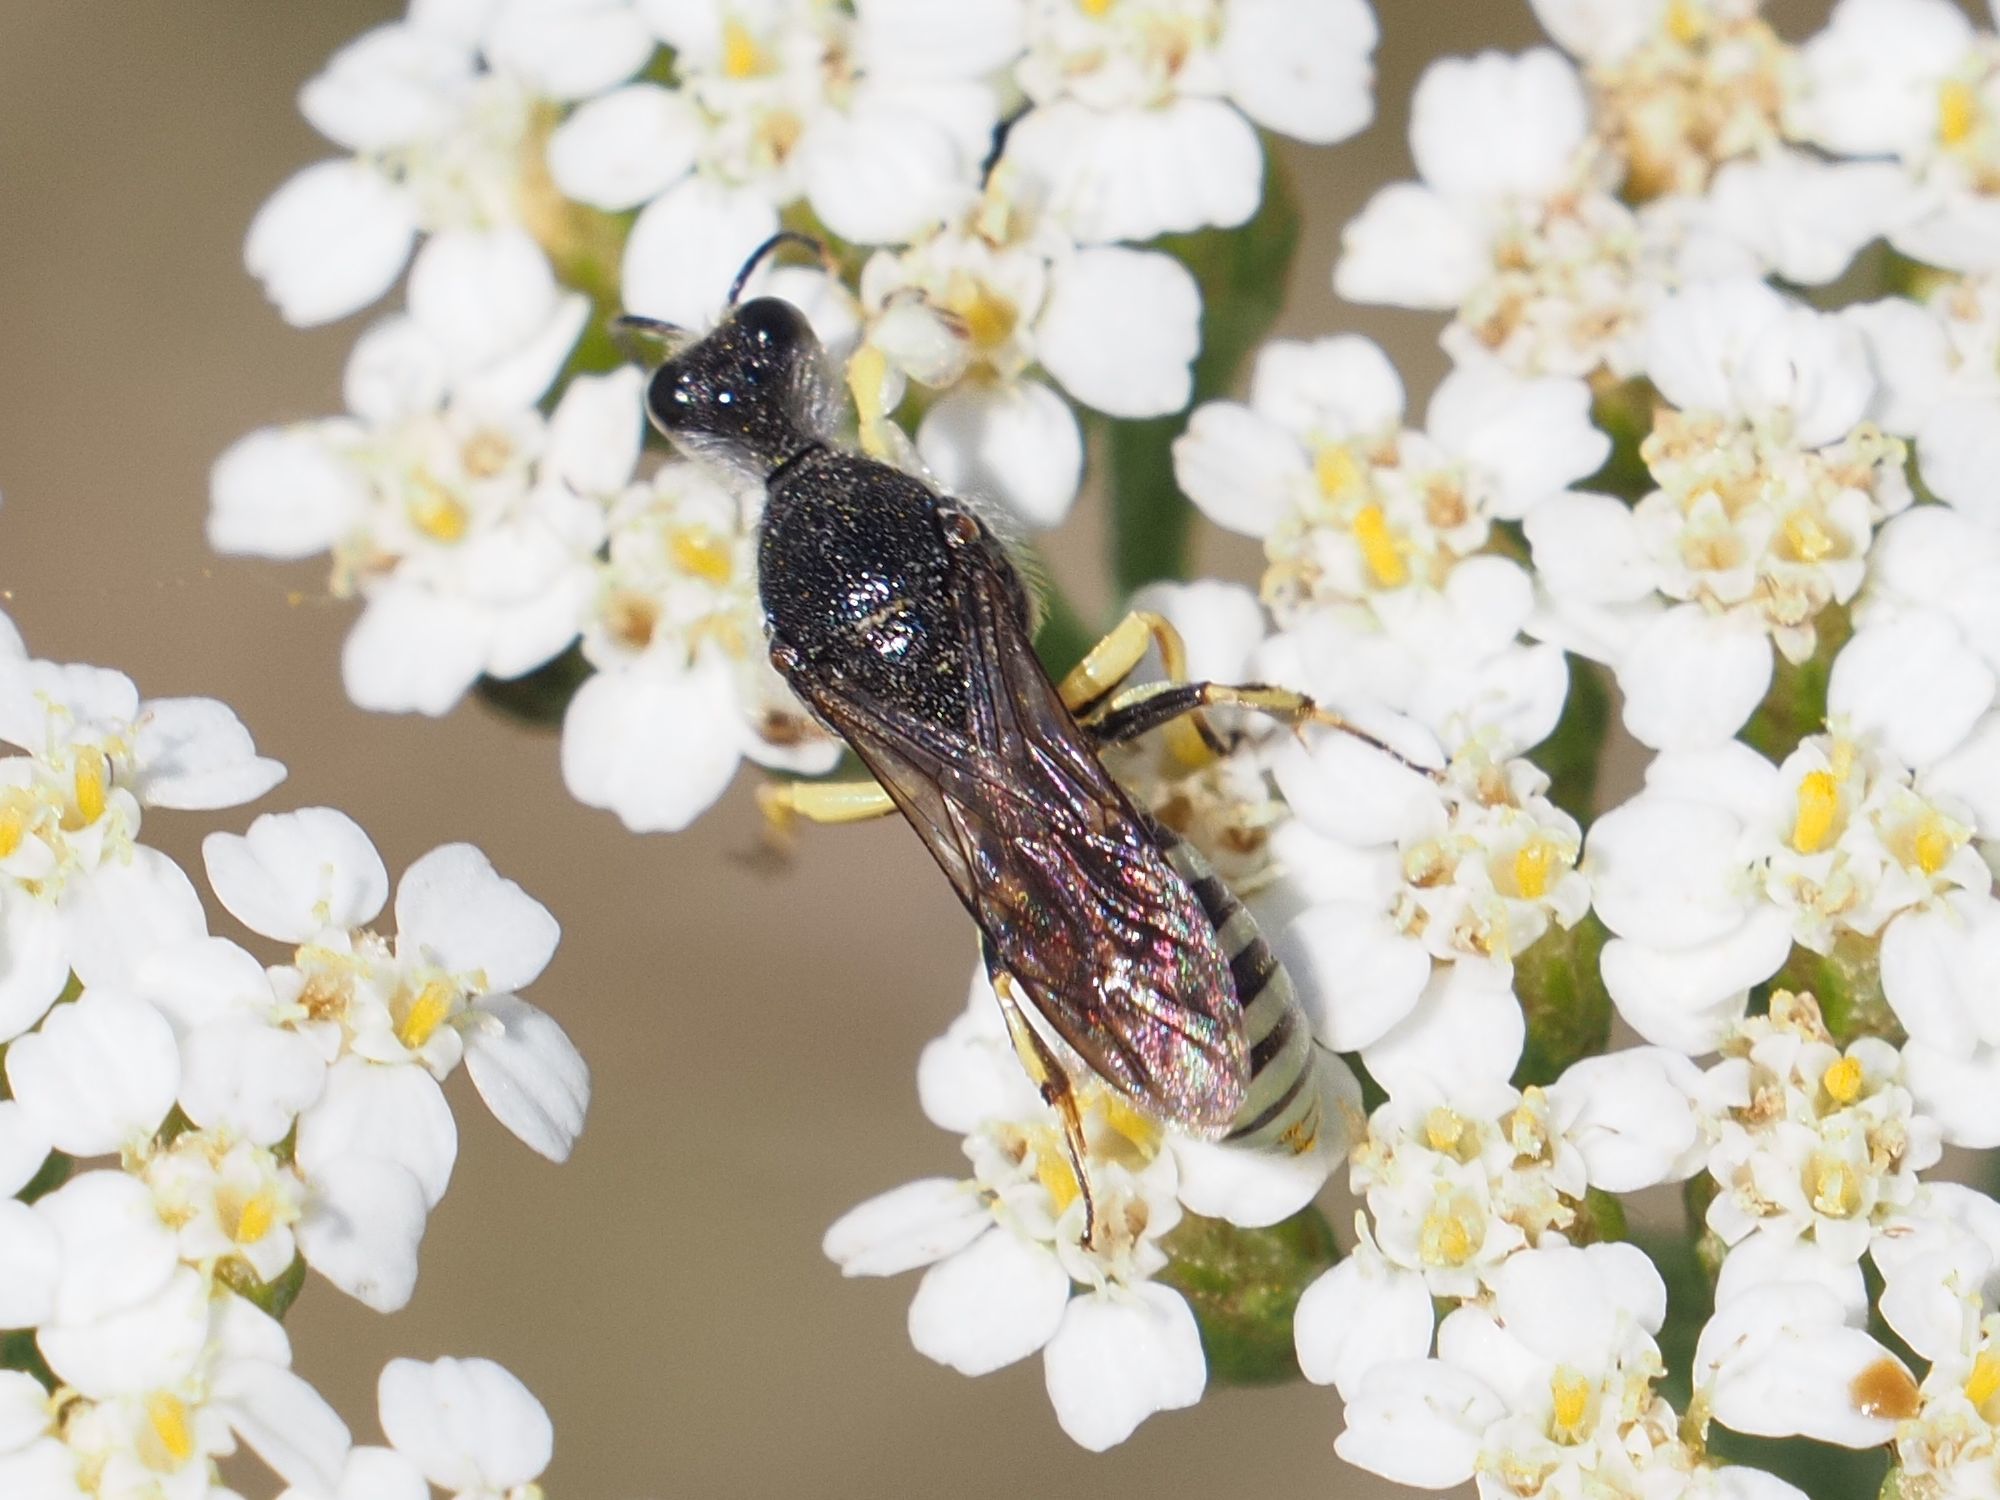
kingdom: Animalia
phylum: Arthropoda
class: Insecta
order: Hymenoptera
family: Crabronidae
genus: Lestica
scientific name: Lestica clypeata
